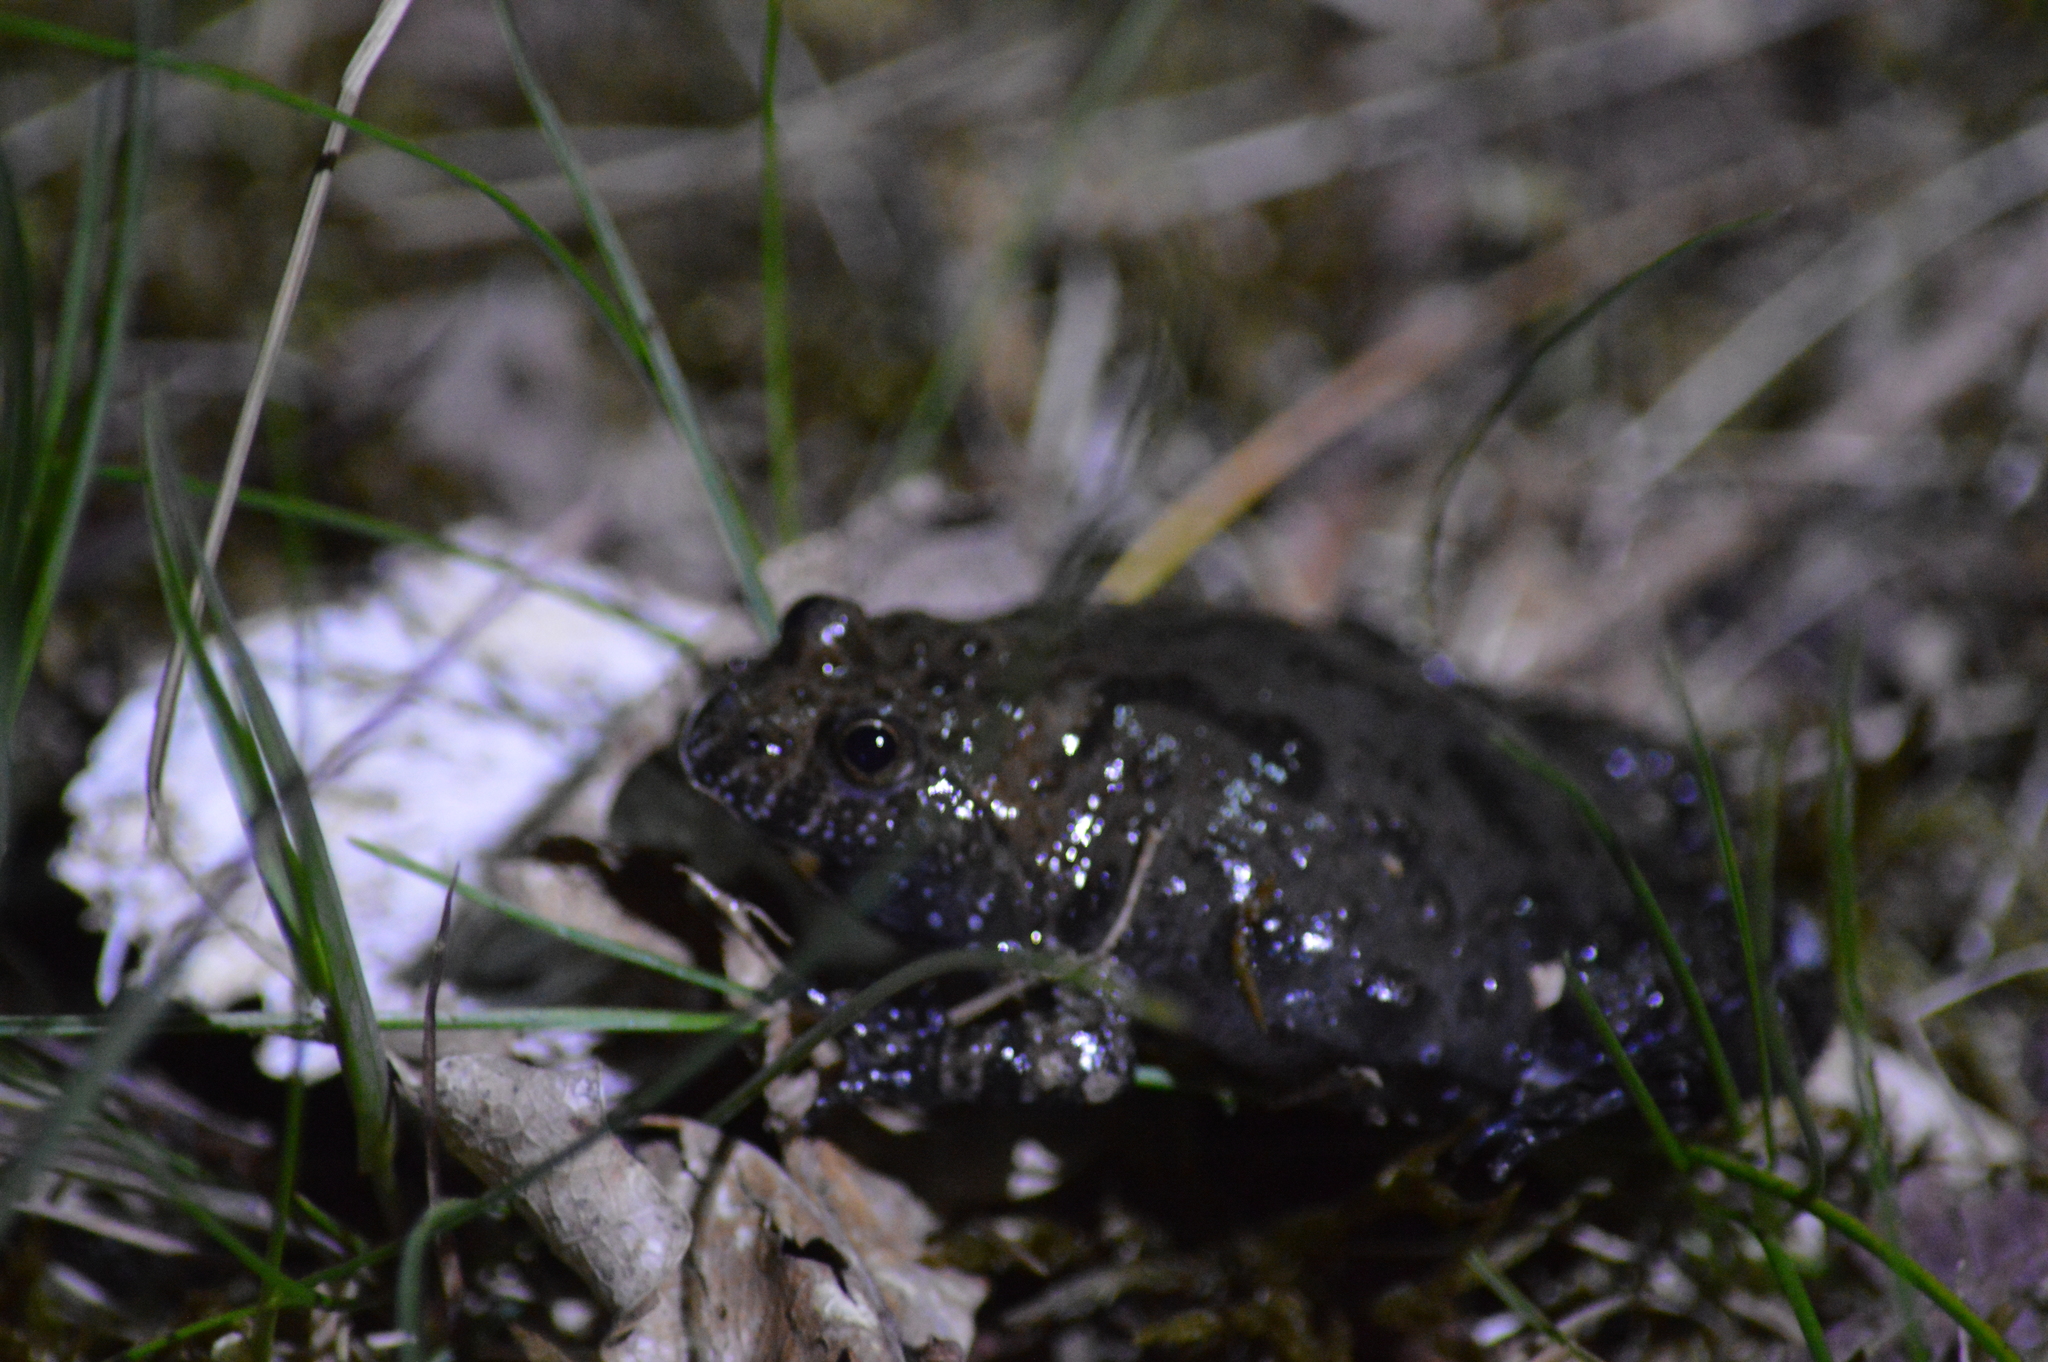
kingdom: Animalia
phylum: Chordata
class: Amphibia
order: Anura
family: Bombinatoridae
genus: Bombina
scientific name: Bombina bombina
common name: Fire-bellied toad
